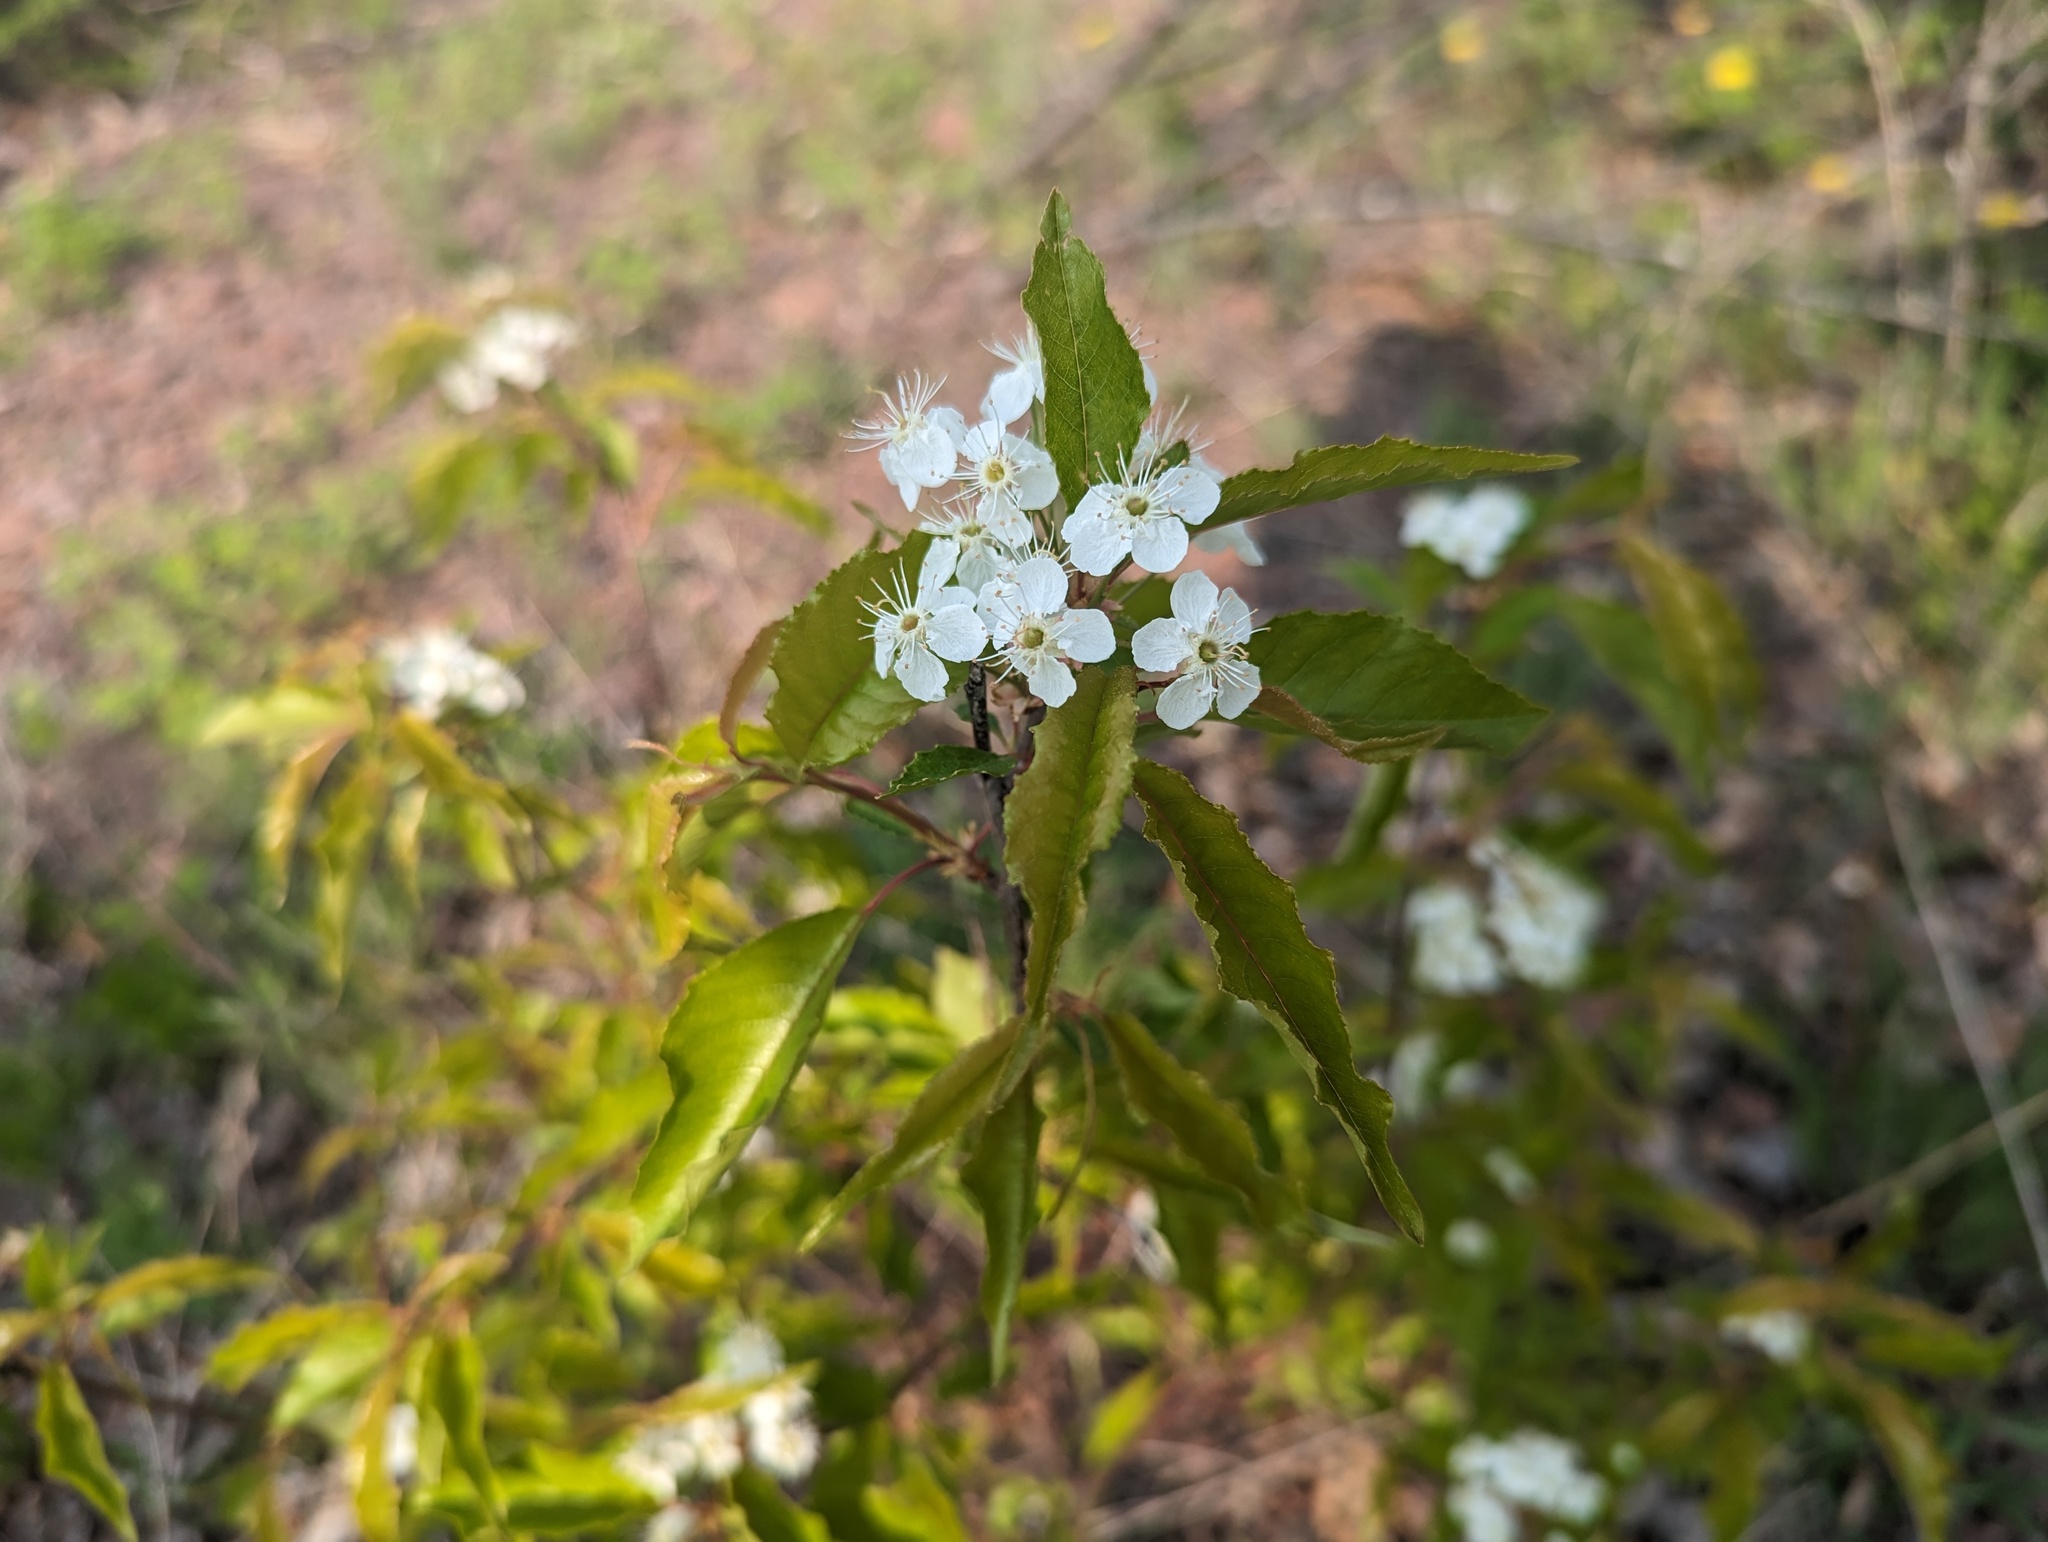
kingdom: Plantae
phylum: Tracheophyta
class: Magnoliopsida
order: Rosales
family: Rosaceae
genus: Prunus
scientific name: Prunus pensylvanica
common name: Pin cherry
